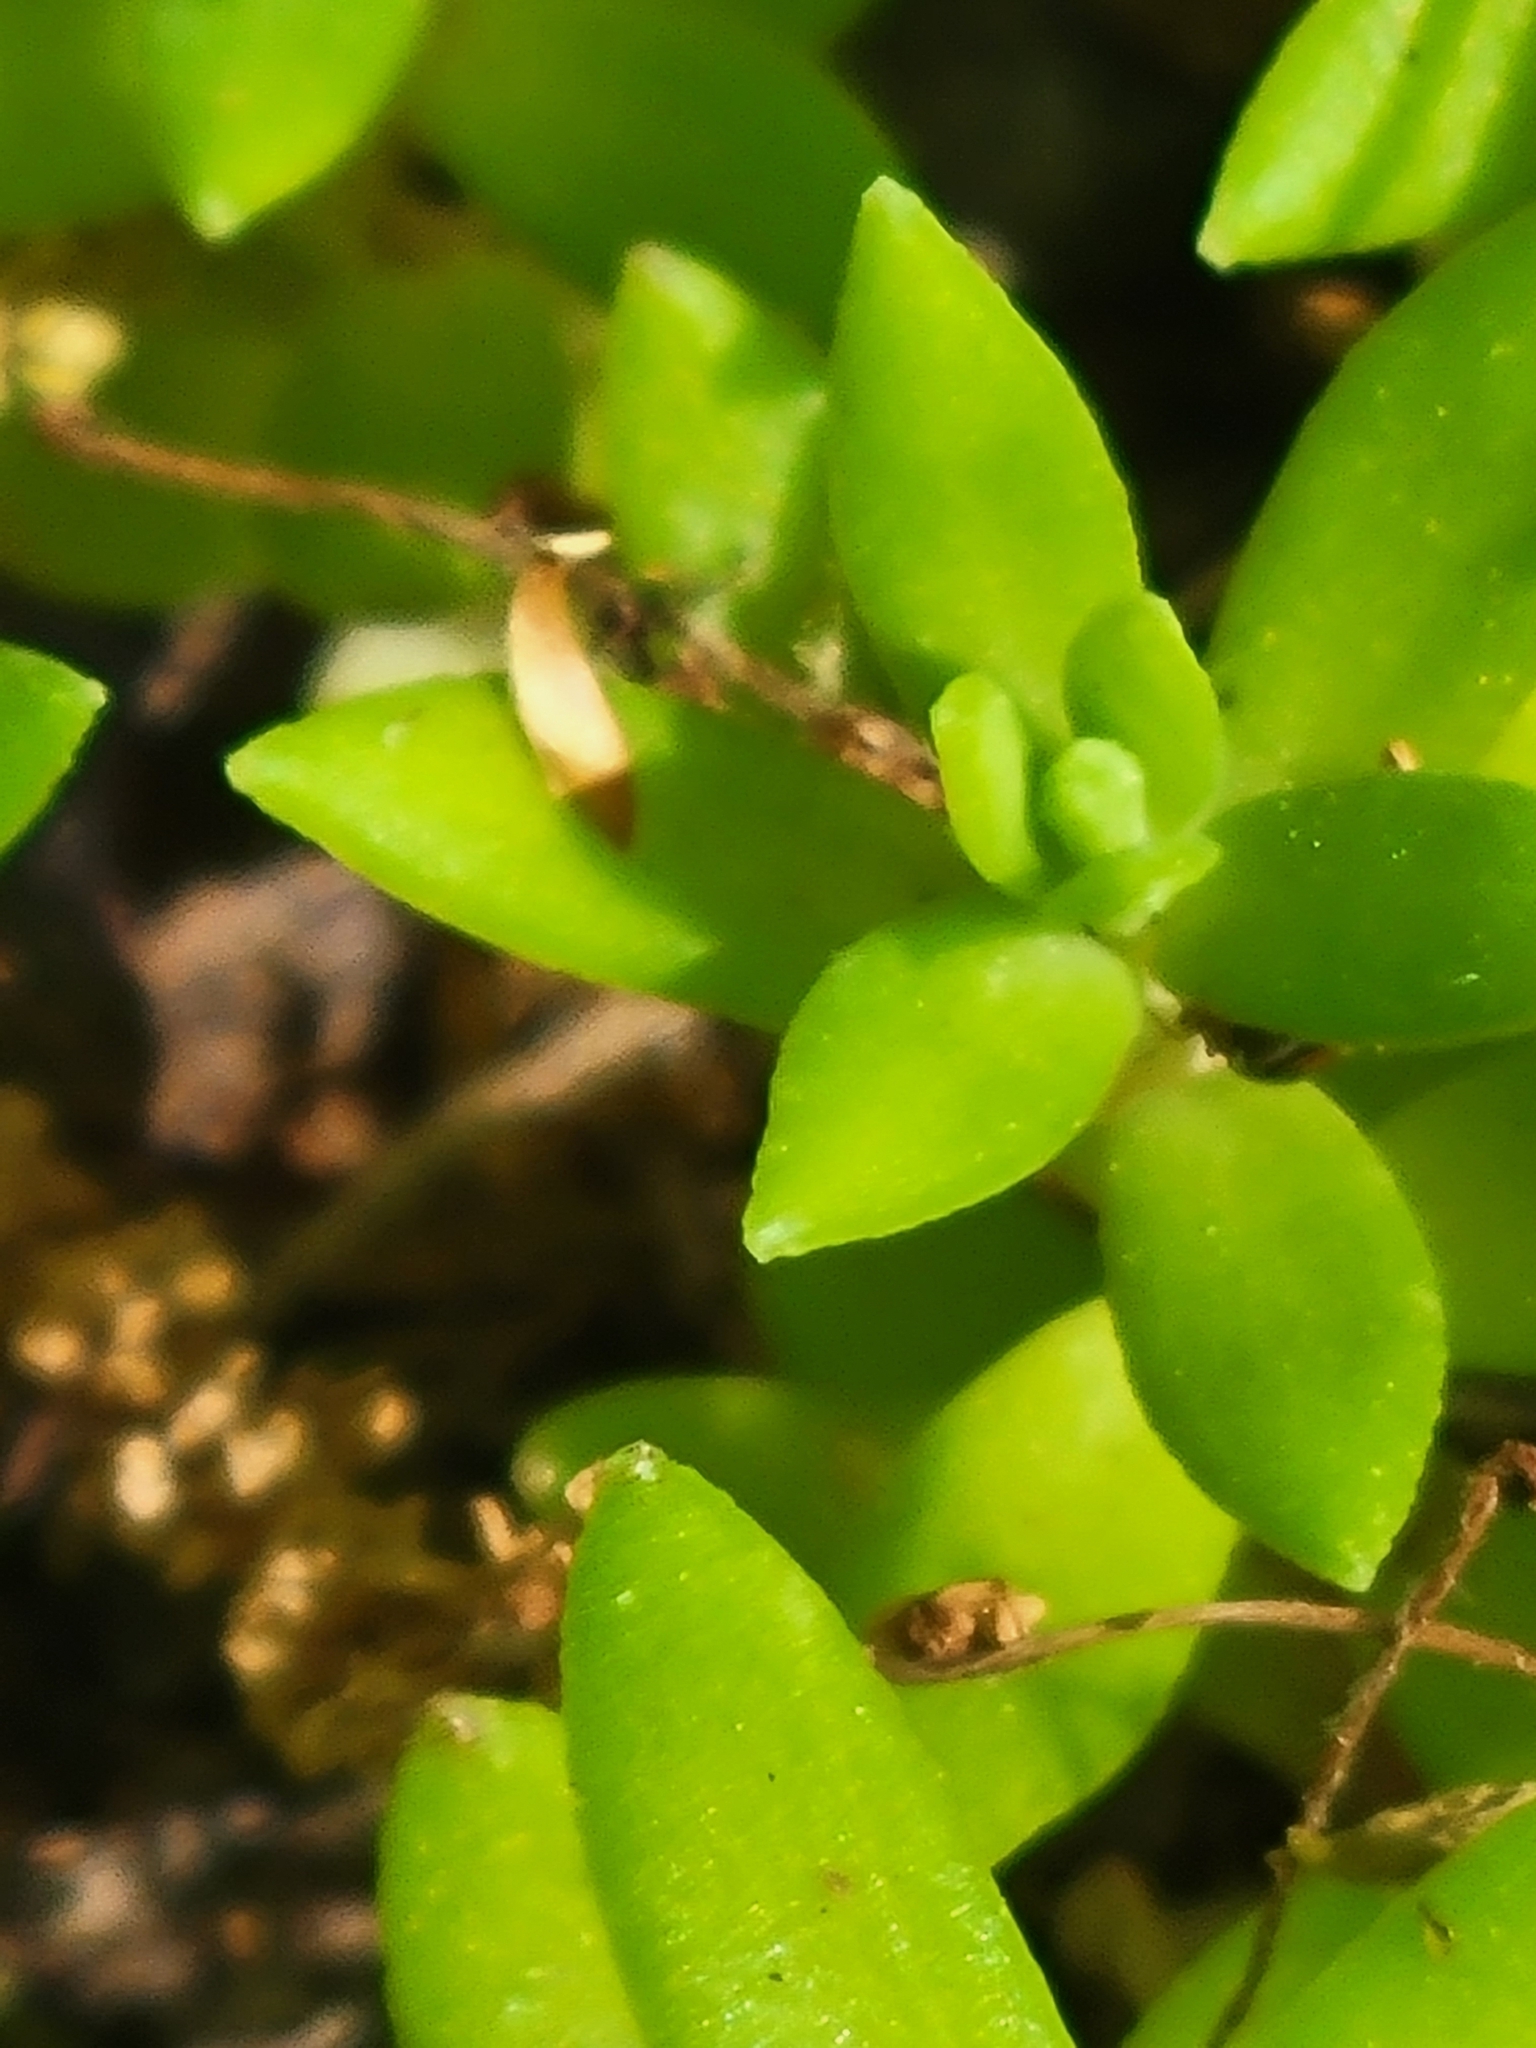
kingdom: Plantae
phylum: Tracheophyta
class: Magnoliopsida
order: Saxifragales
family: Crassulaceae
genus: Sedum
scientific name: Sedum sarmentosum
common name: Stringy stonecrop
